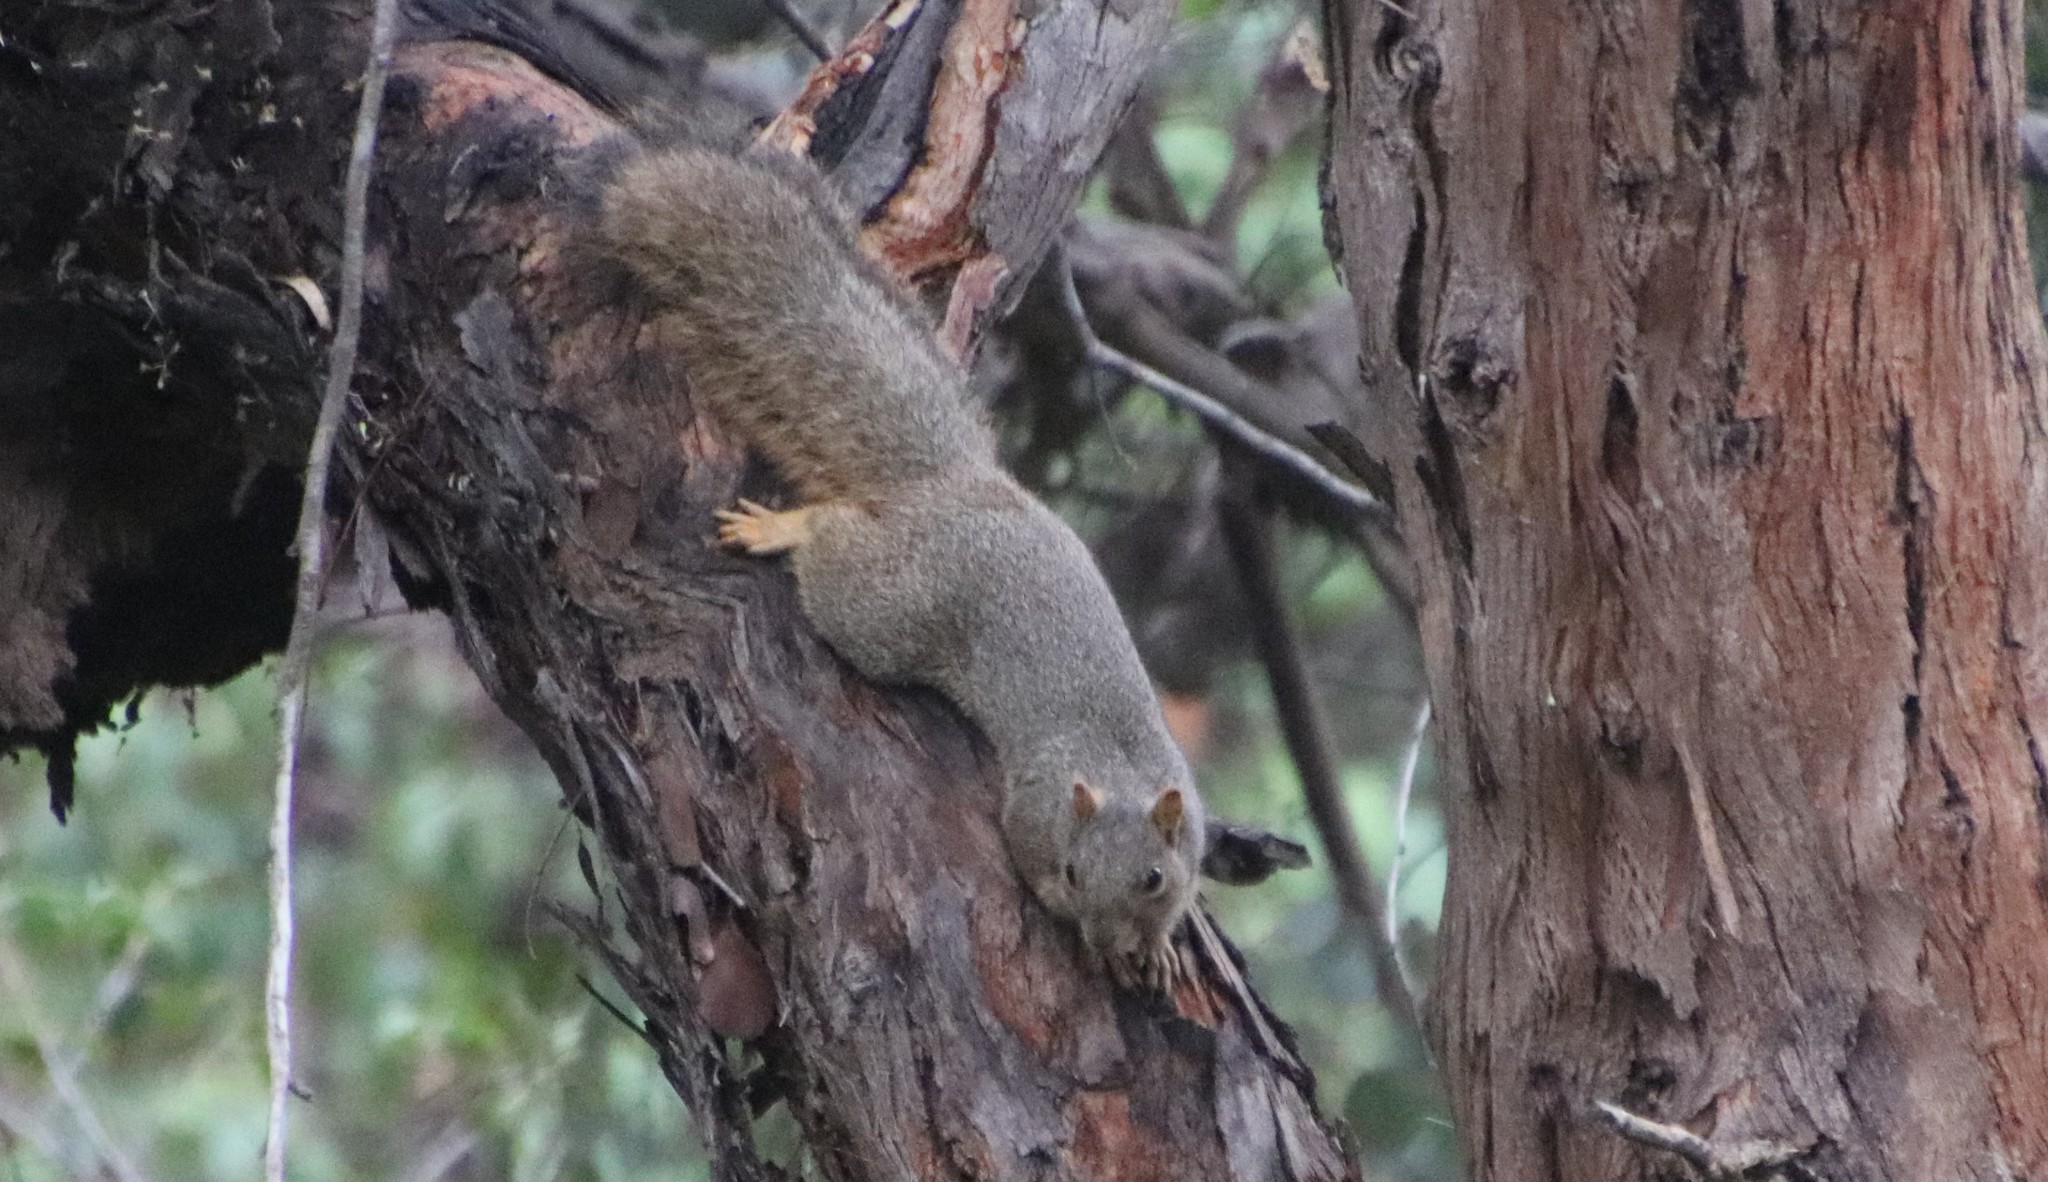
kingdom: Animalia
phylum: Chordata
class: Mammalia
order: Rodentia
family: Sciuridae
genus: Sciurus
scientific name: Sciurus niger
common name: Fox squirrel
